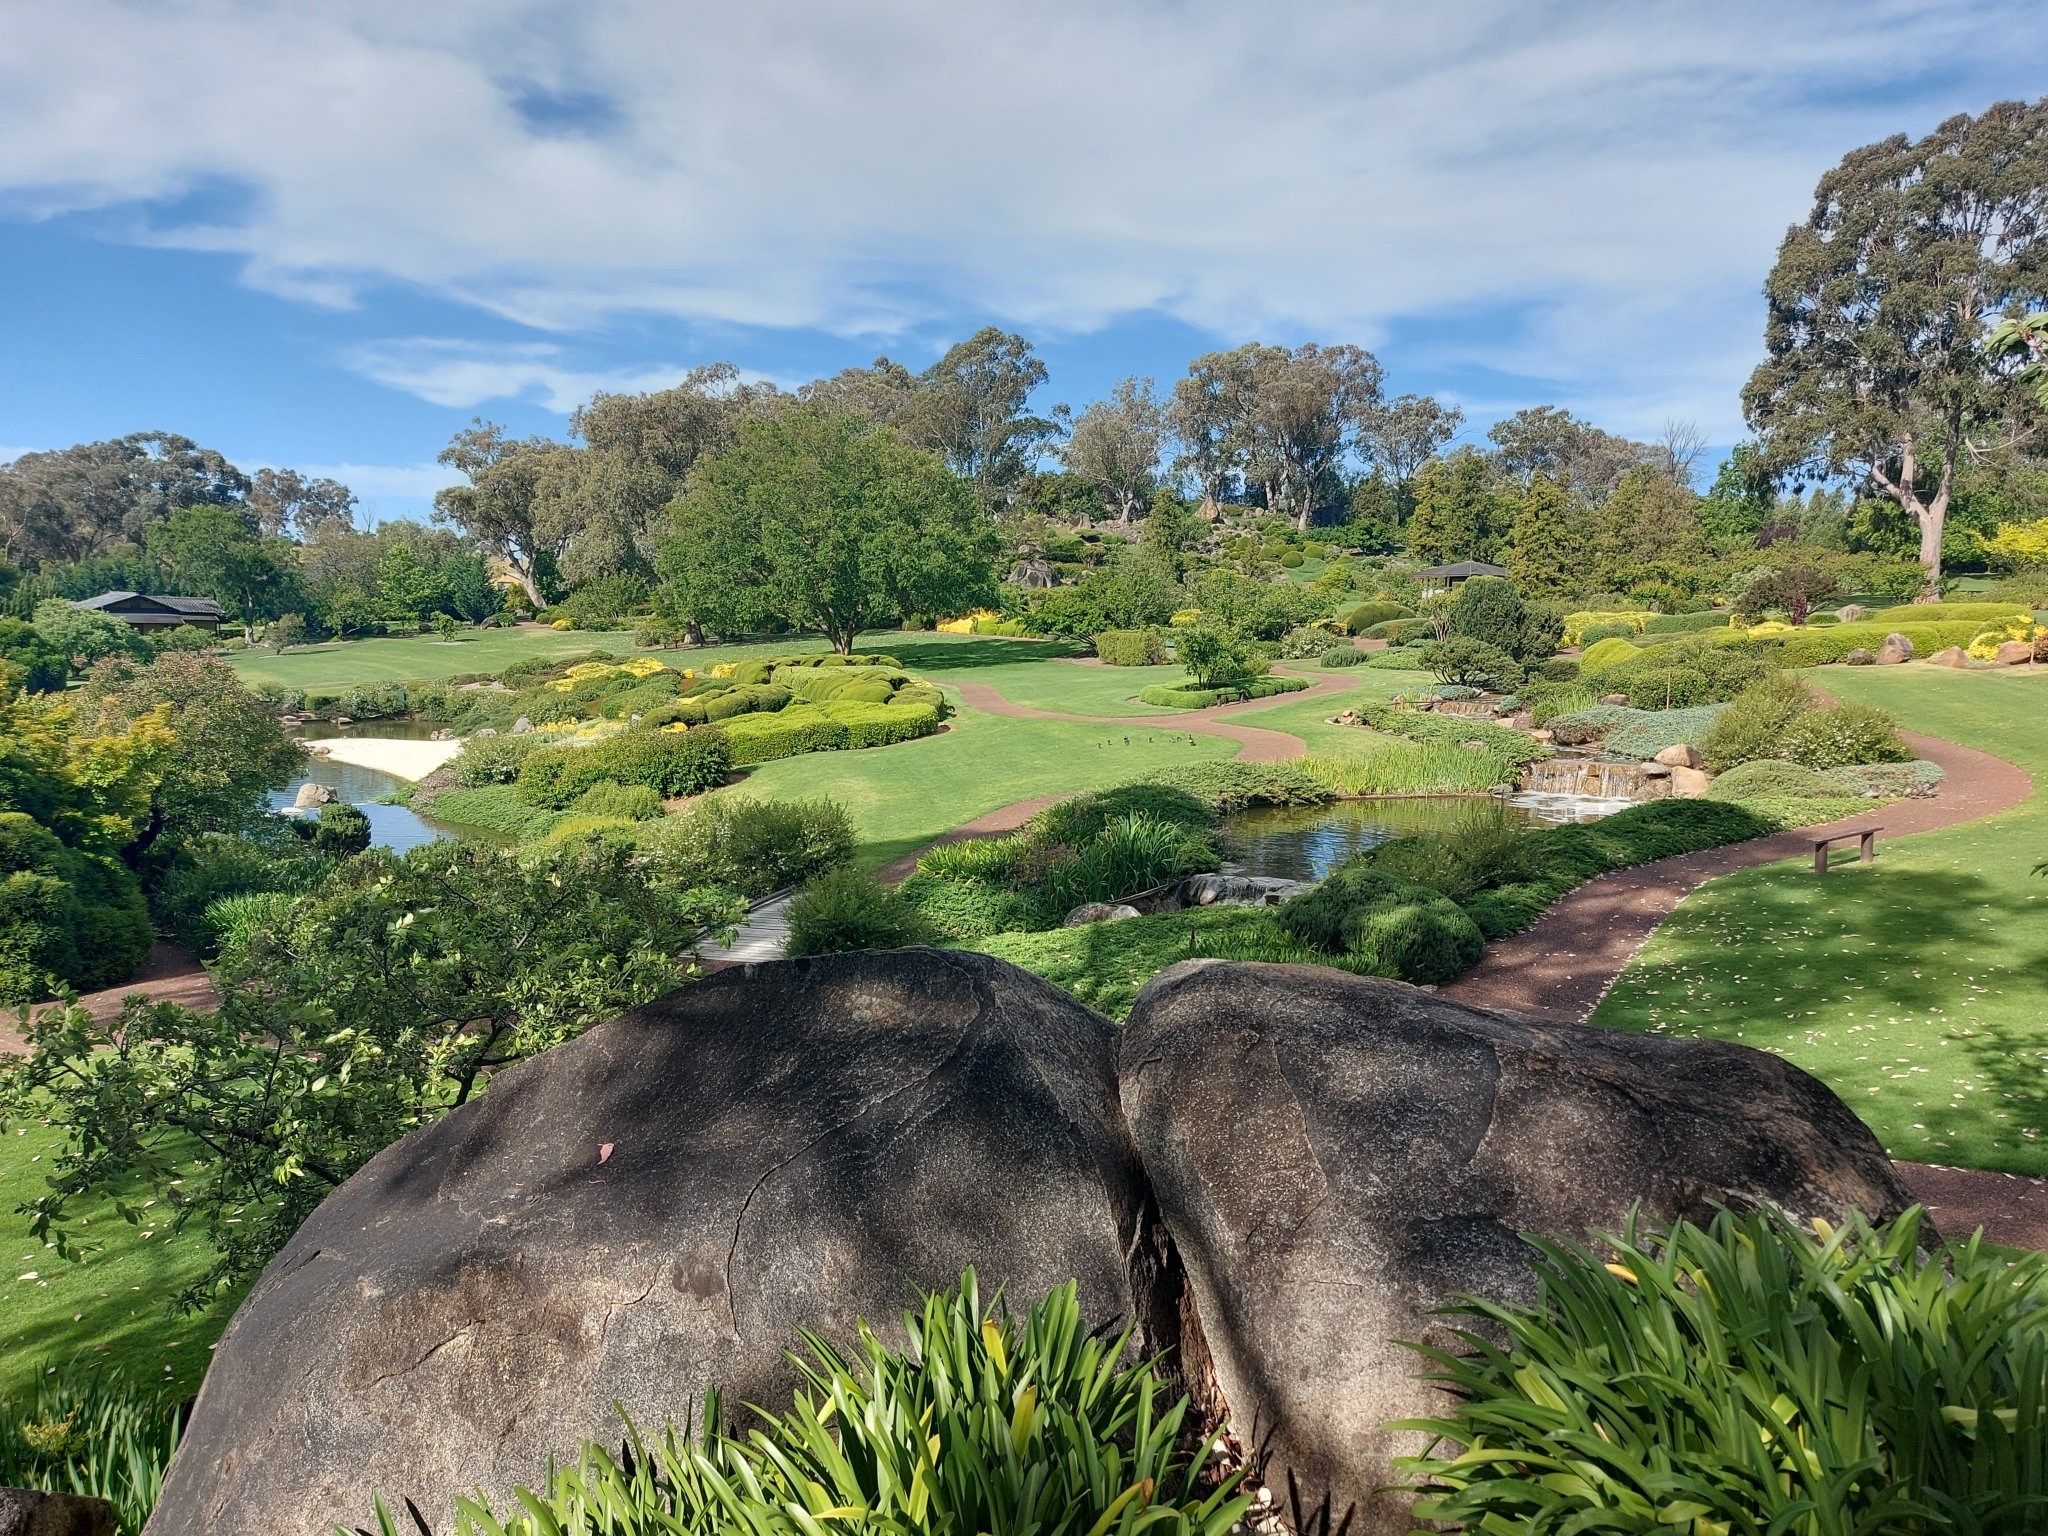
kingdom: Animalia
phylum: Chordata
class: Aves
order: Anseriformes
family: Anatidae
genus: Chenonetta
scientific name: Chenonetta jubata
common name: Maned duck
